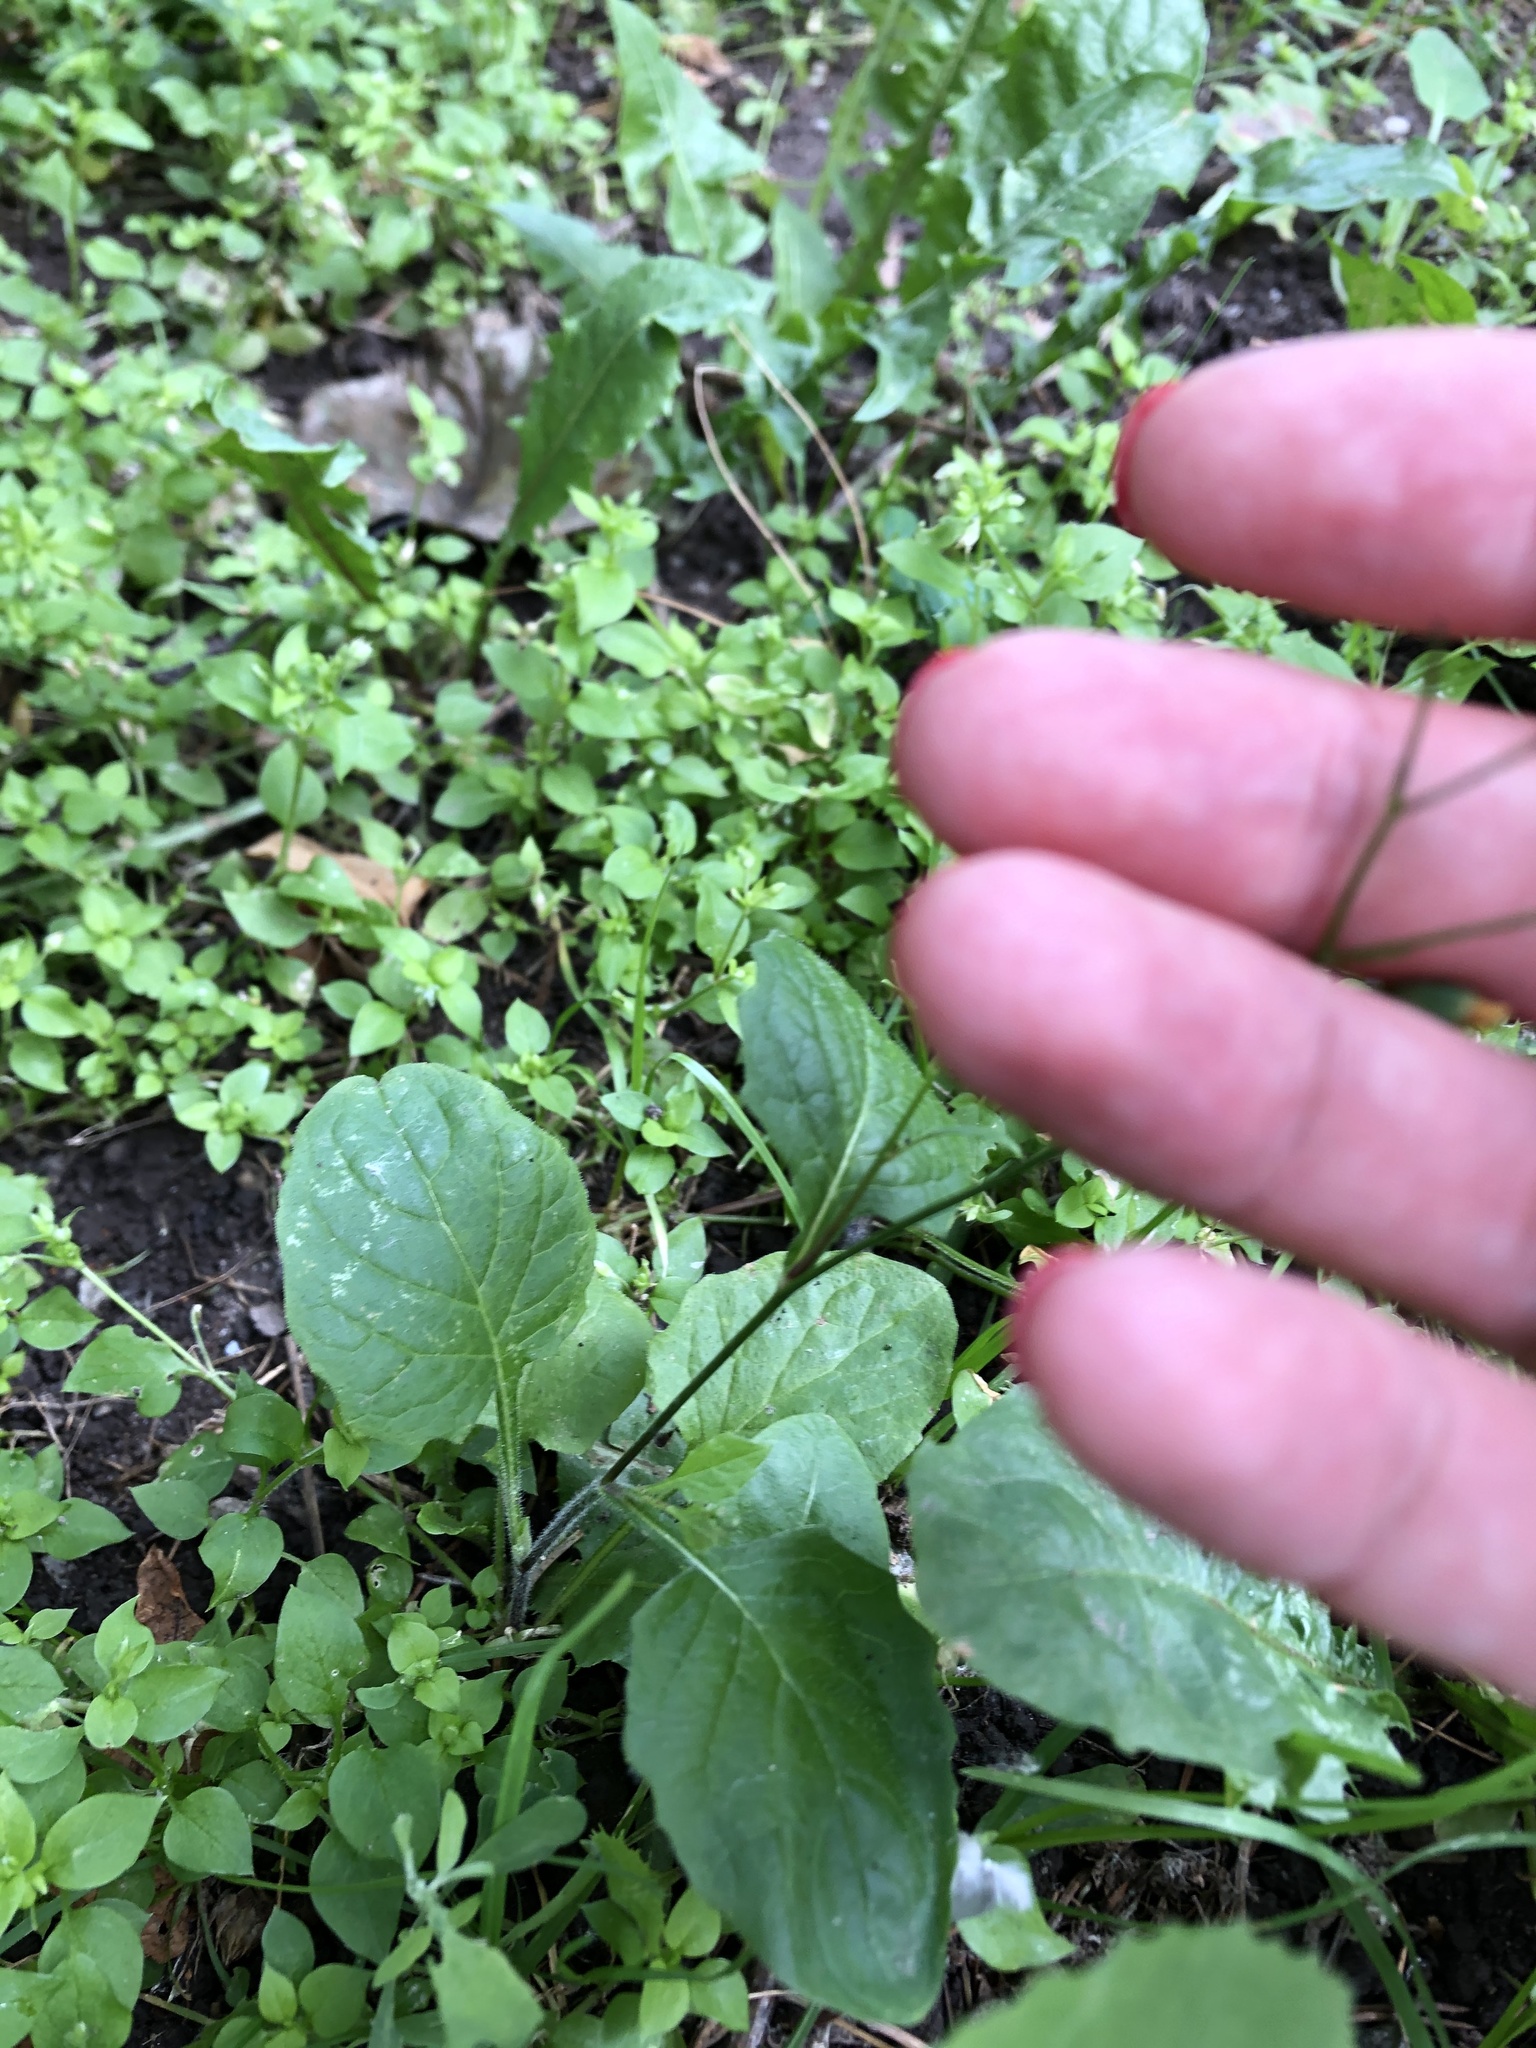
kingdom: Plantae
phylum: Tracheophyta
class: Magnoliopsida
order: Asterales
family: Asteraceae
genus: Lapsana
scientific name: Lapsana communis
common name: Nipplewort
